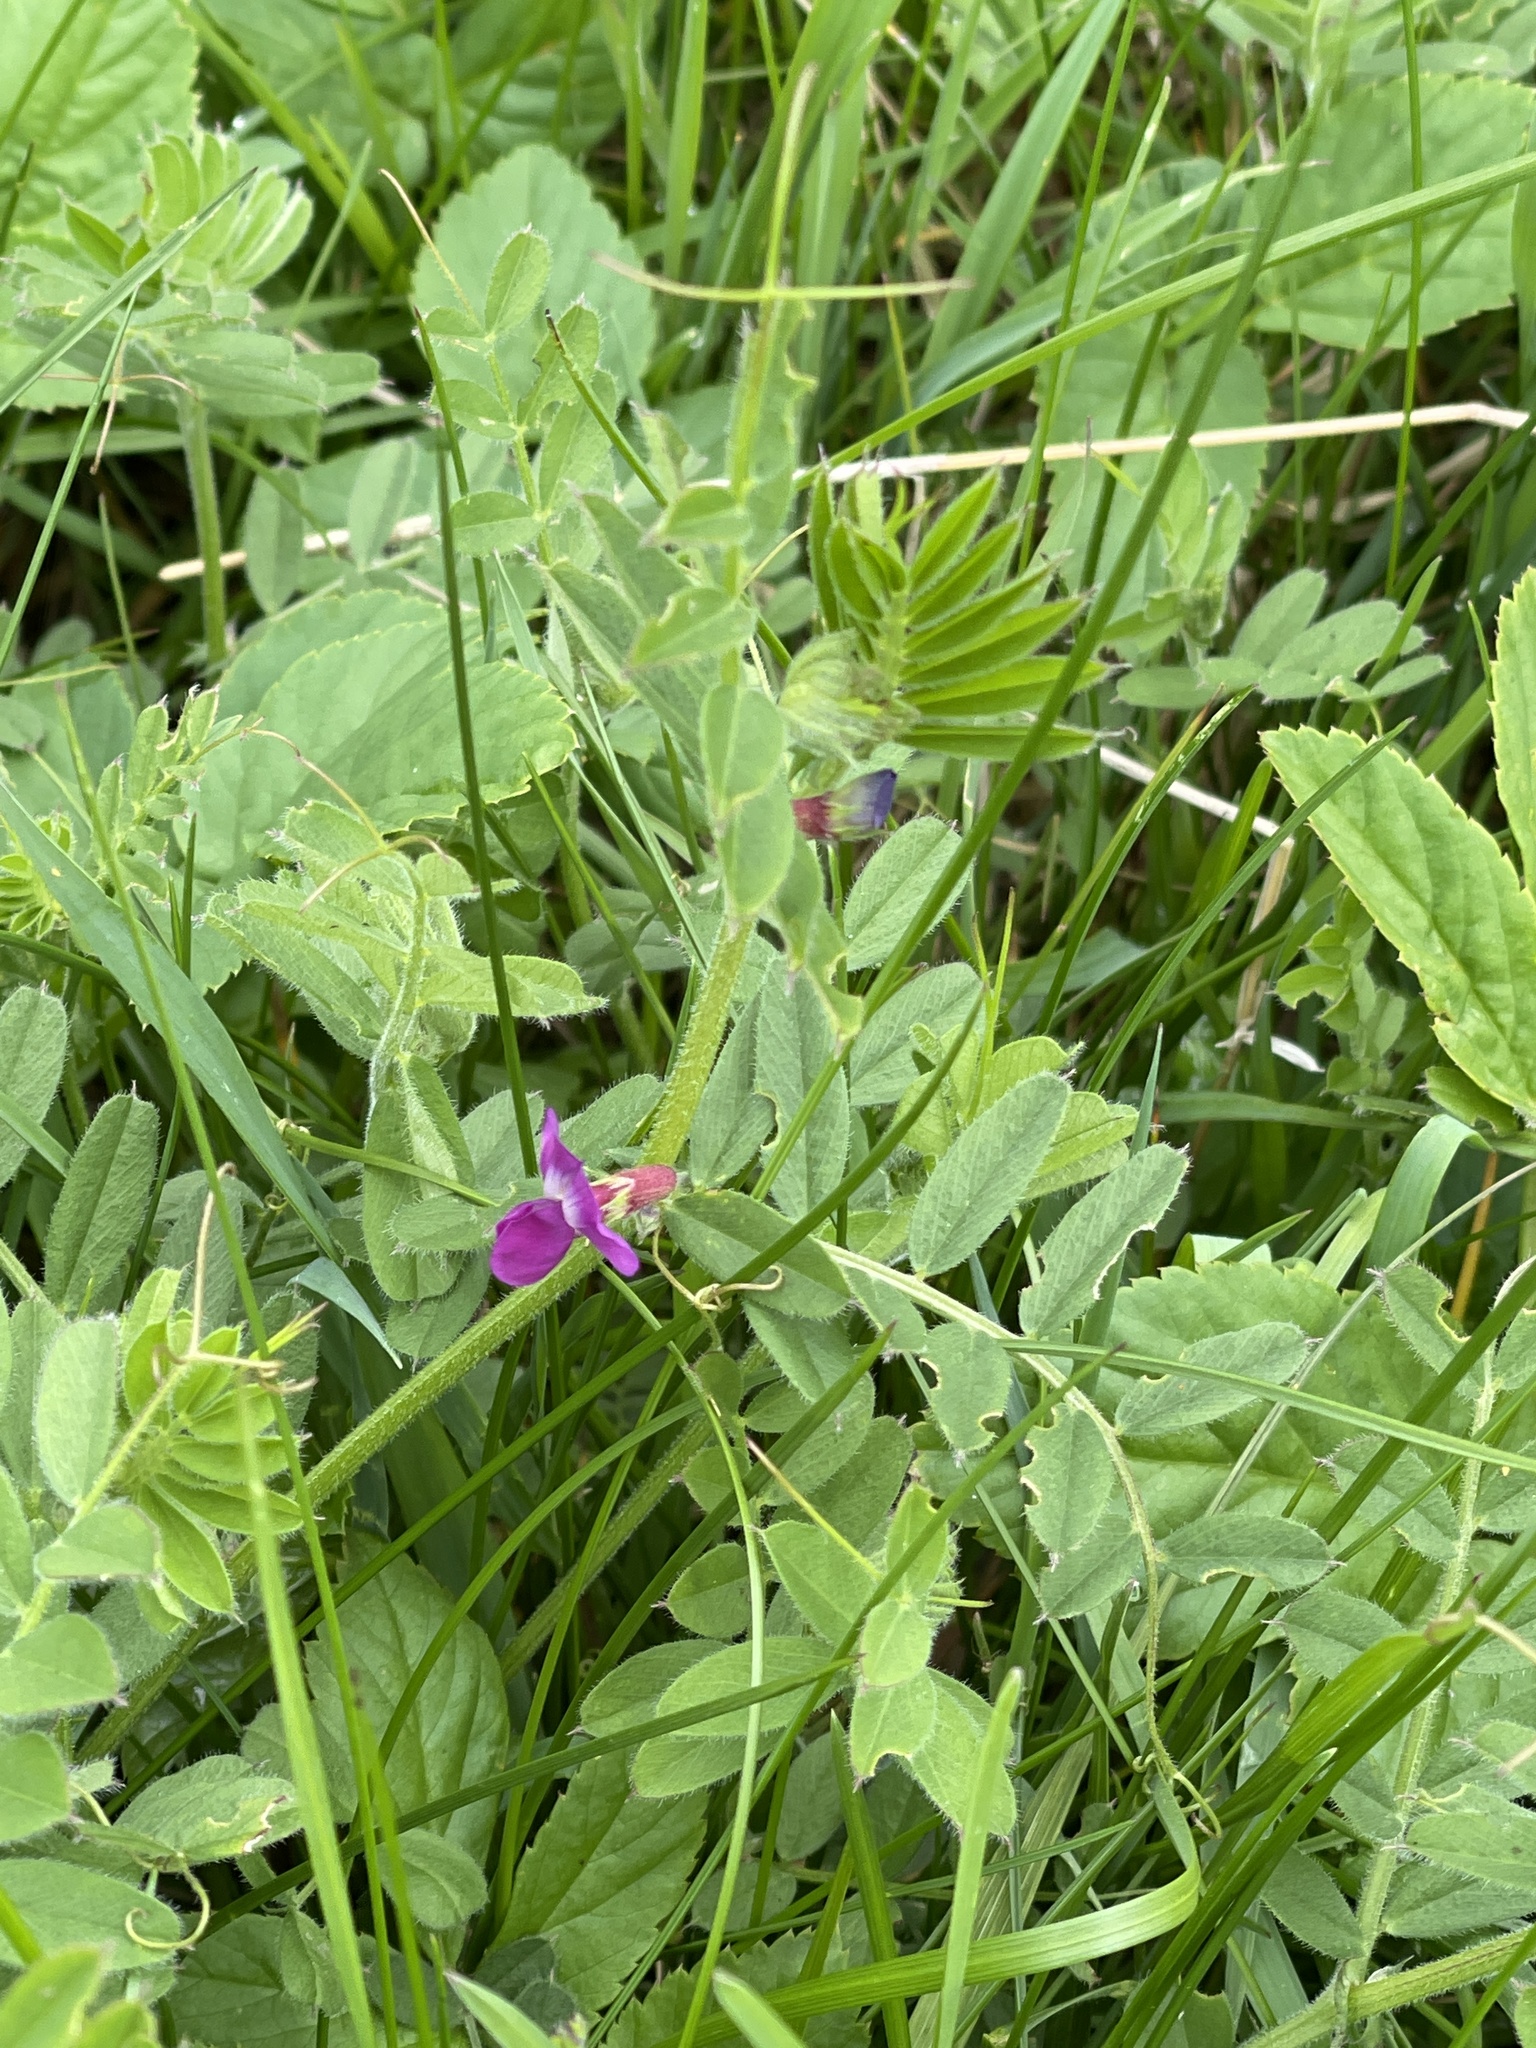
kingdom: Plantae
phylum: Tracheophyta
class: Magnoliopsida
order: Fabales
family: Fabaceae
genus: Vicia
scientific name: Vicia sativa
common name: Garden vetch
